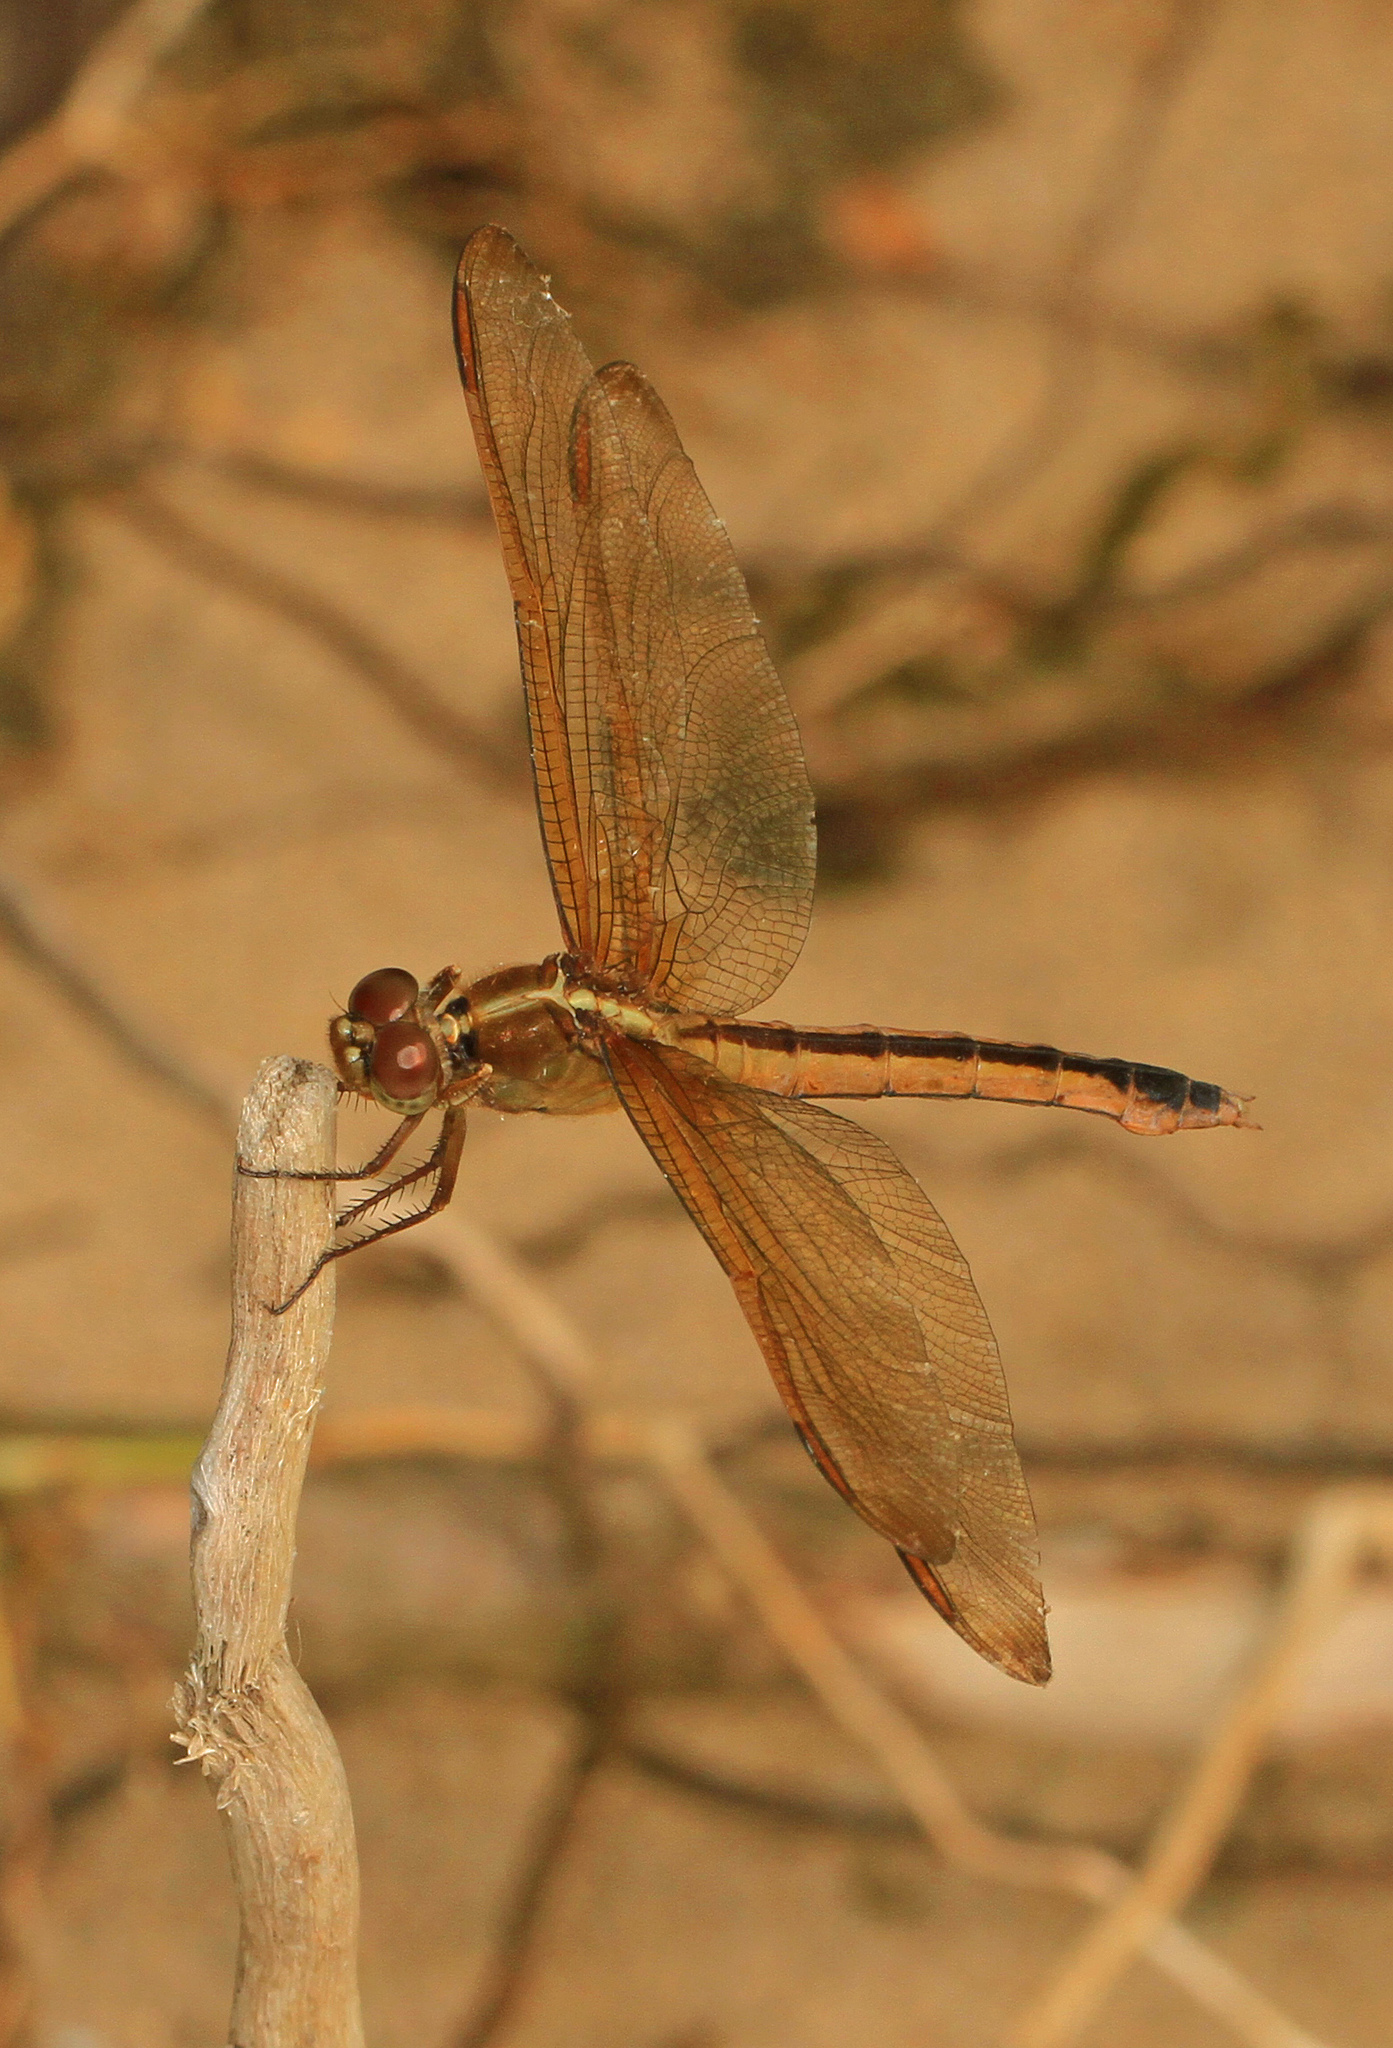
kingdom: Animalia
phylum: Arthropoda
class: Insecta
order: Odonata
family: Libellulidae
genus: Libellula
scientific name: Libellula needhami
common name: Needham's skimmer
